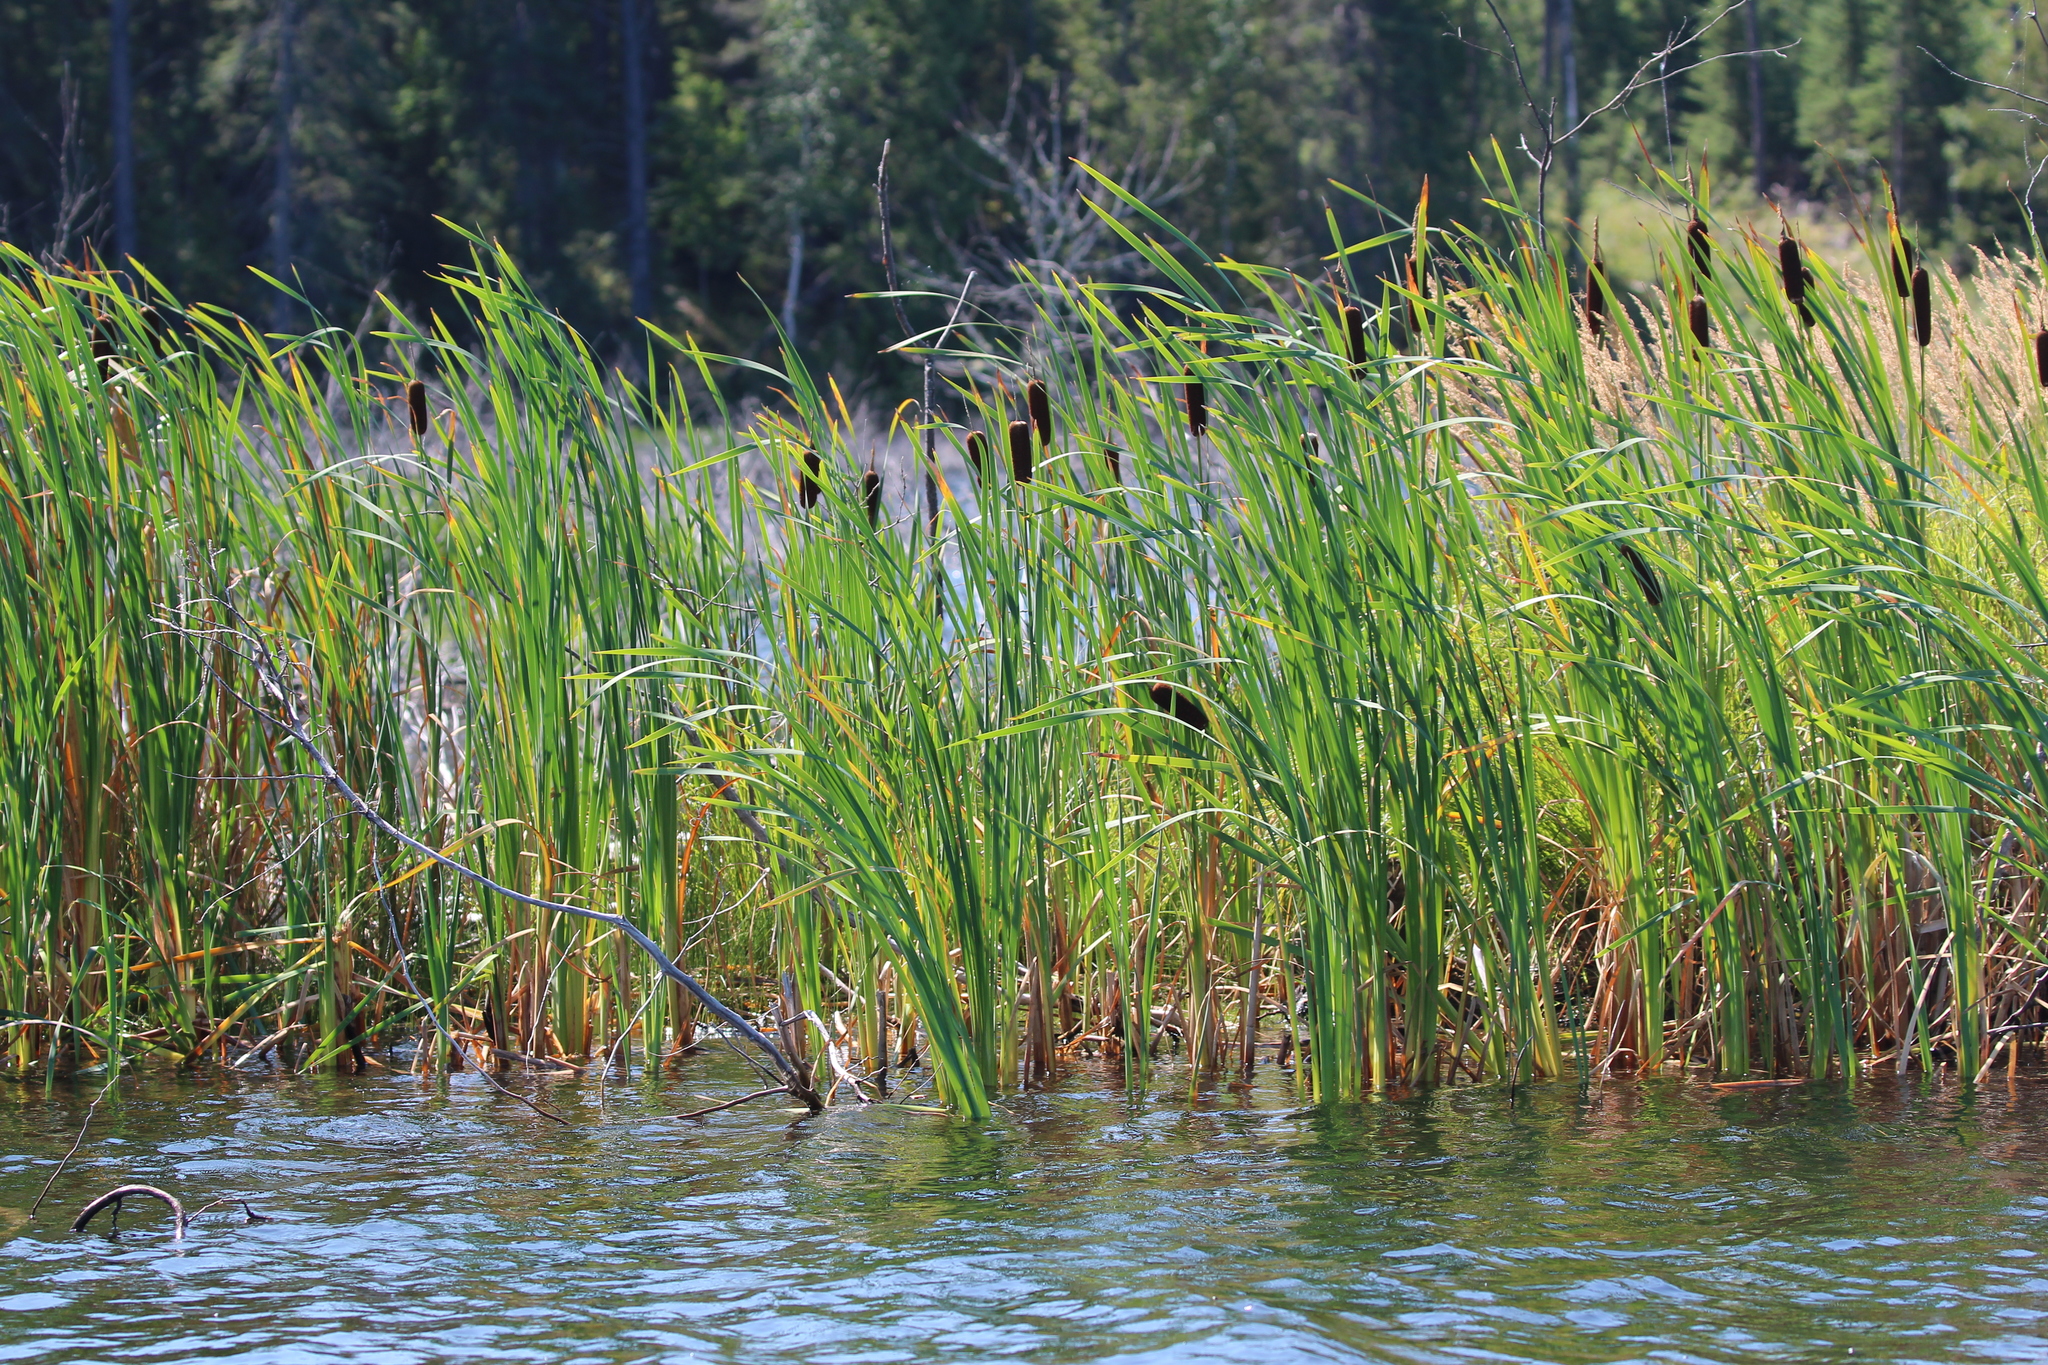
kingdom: Plantae
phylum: Tracheophyta
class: Liliopsida
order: Poales
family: Typhaceae
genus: Typha
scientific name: Typha latifolia
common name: Broadleaf cattail
